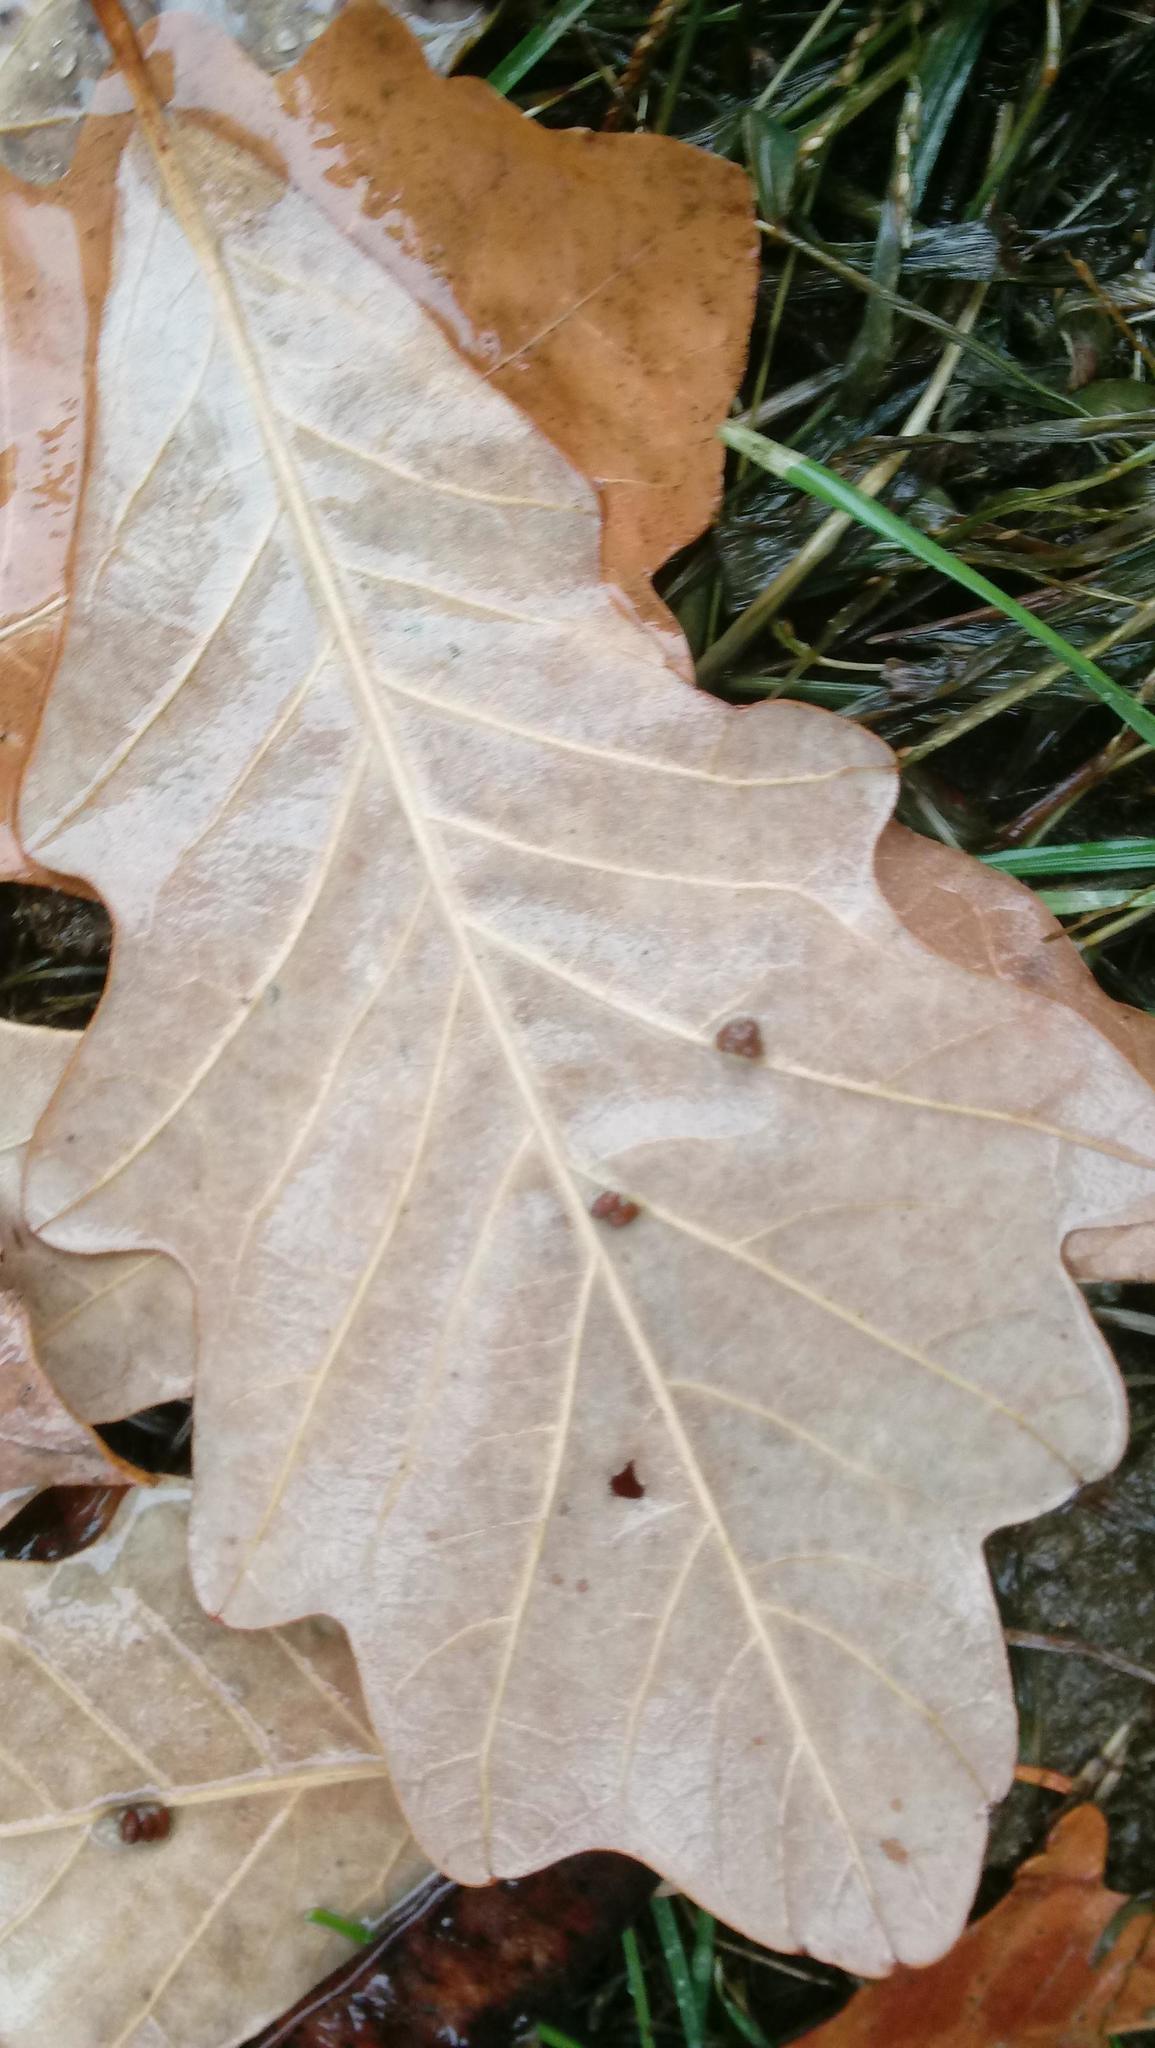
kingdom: Animalia
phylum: Arthropoda
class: Insecta
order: Hymenoptera
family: Cynipidae
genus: Andricus
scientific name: Andricus Druon ignotum
